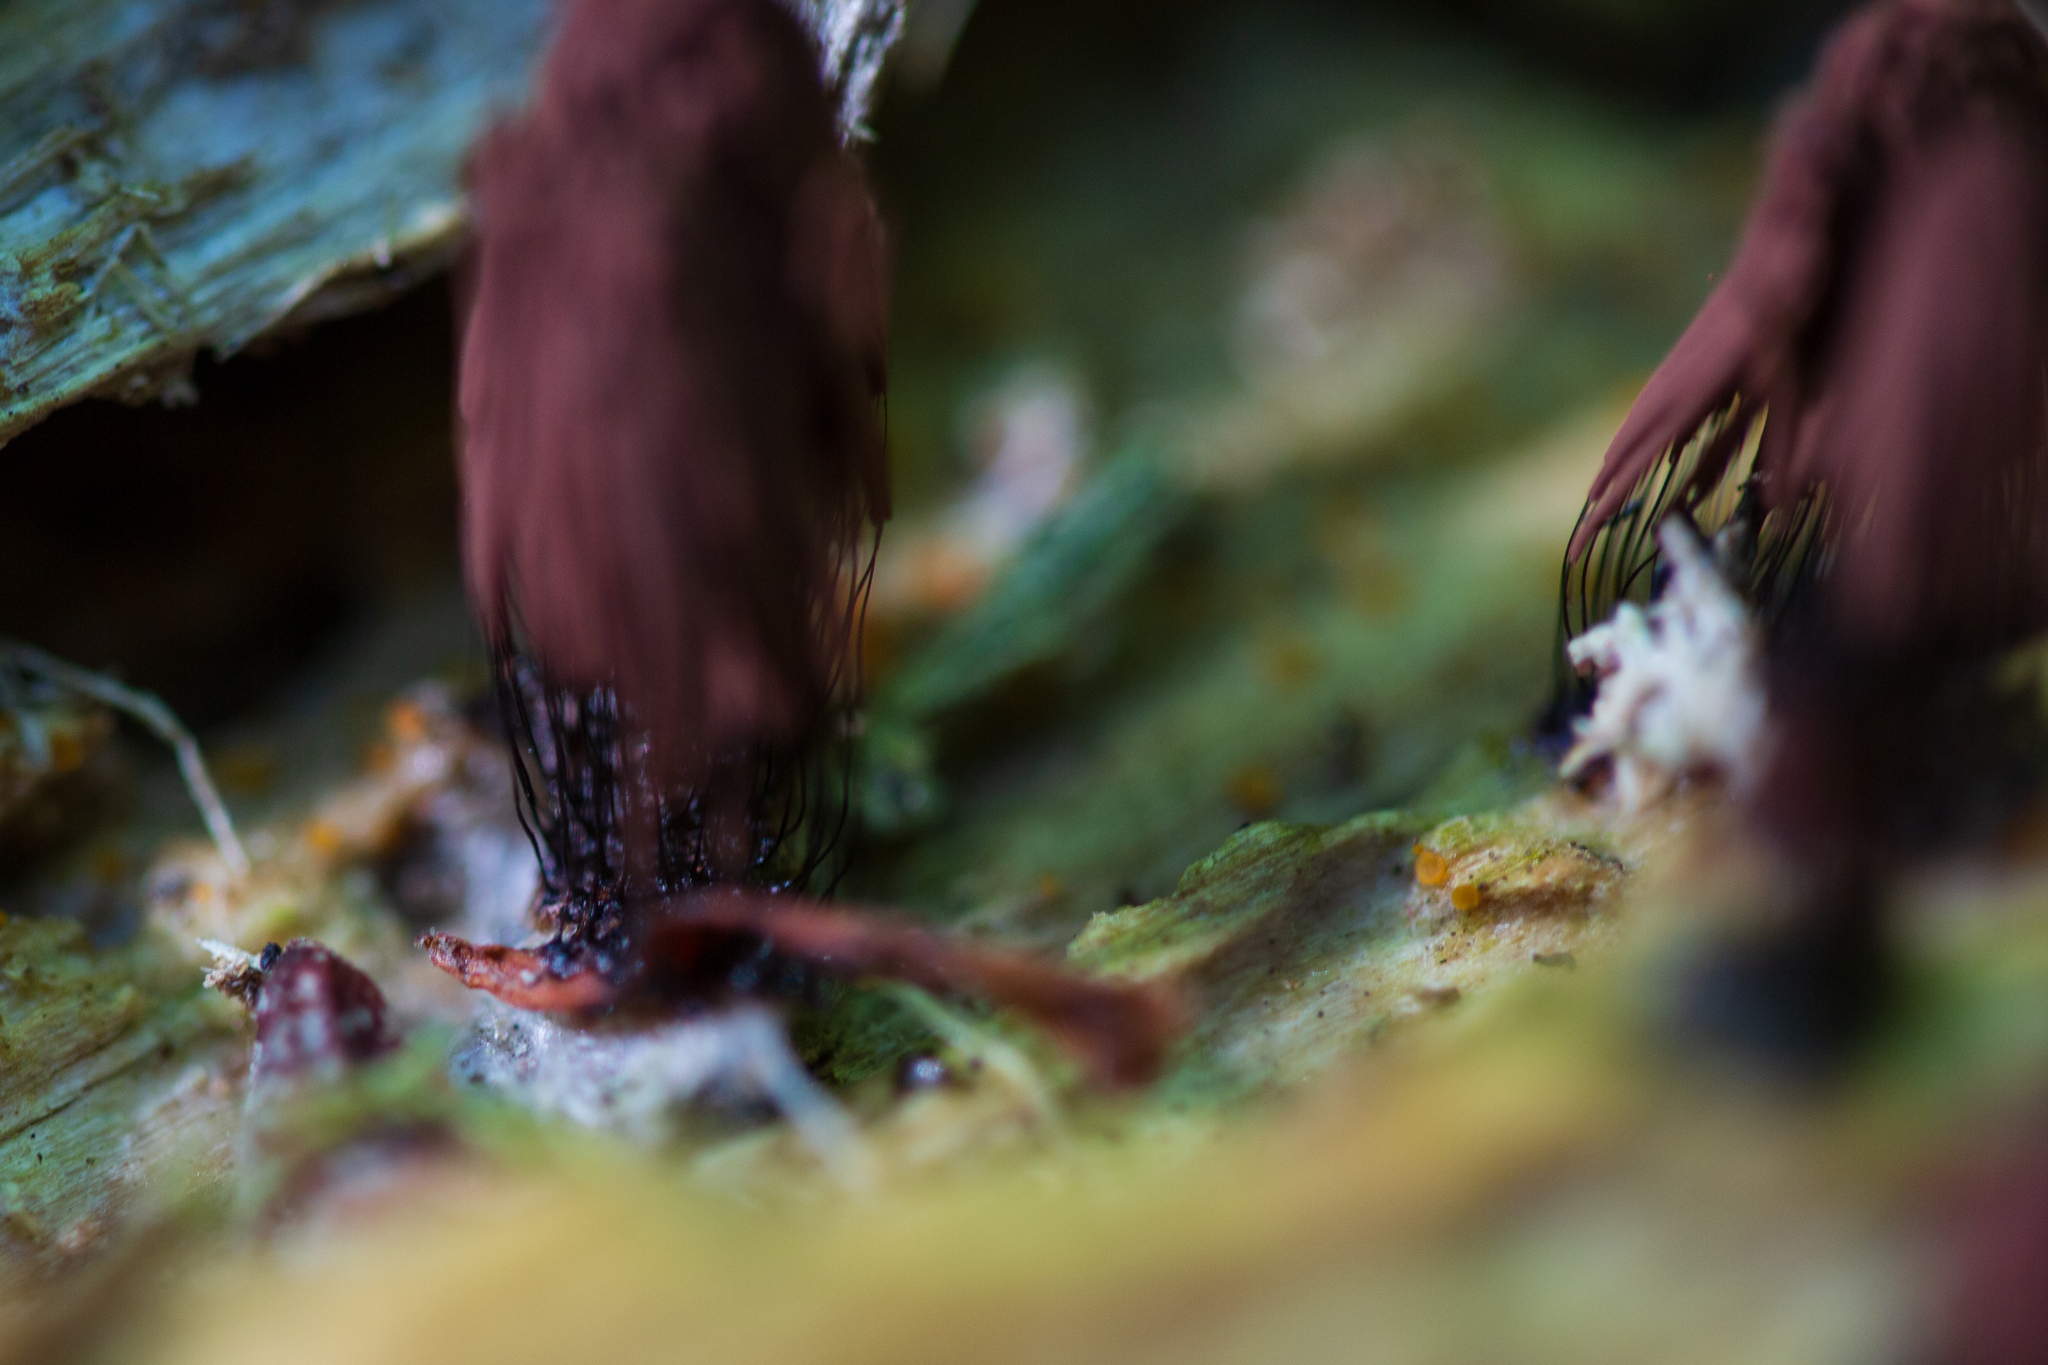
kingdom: Protozoa
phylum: Mycetozoa
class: Myxomycetes
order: Stemonitidales
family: Stemonitidaceae
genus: Stemonitis
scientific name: Stemonitis
